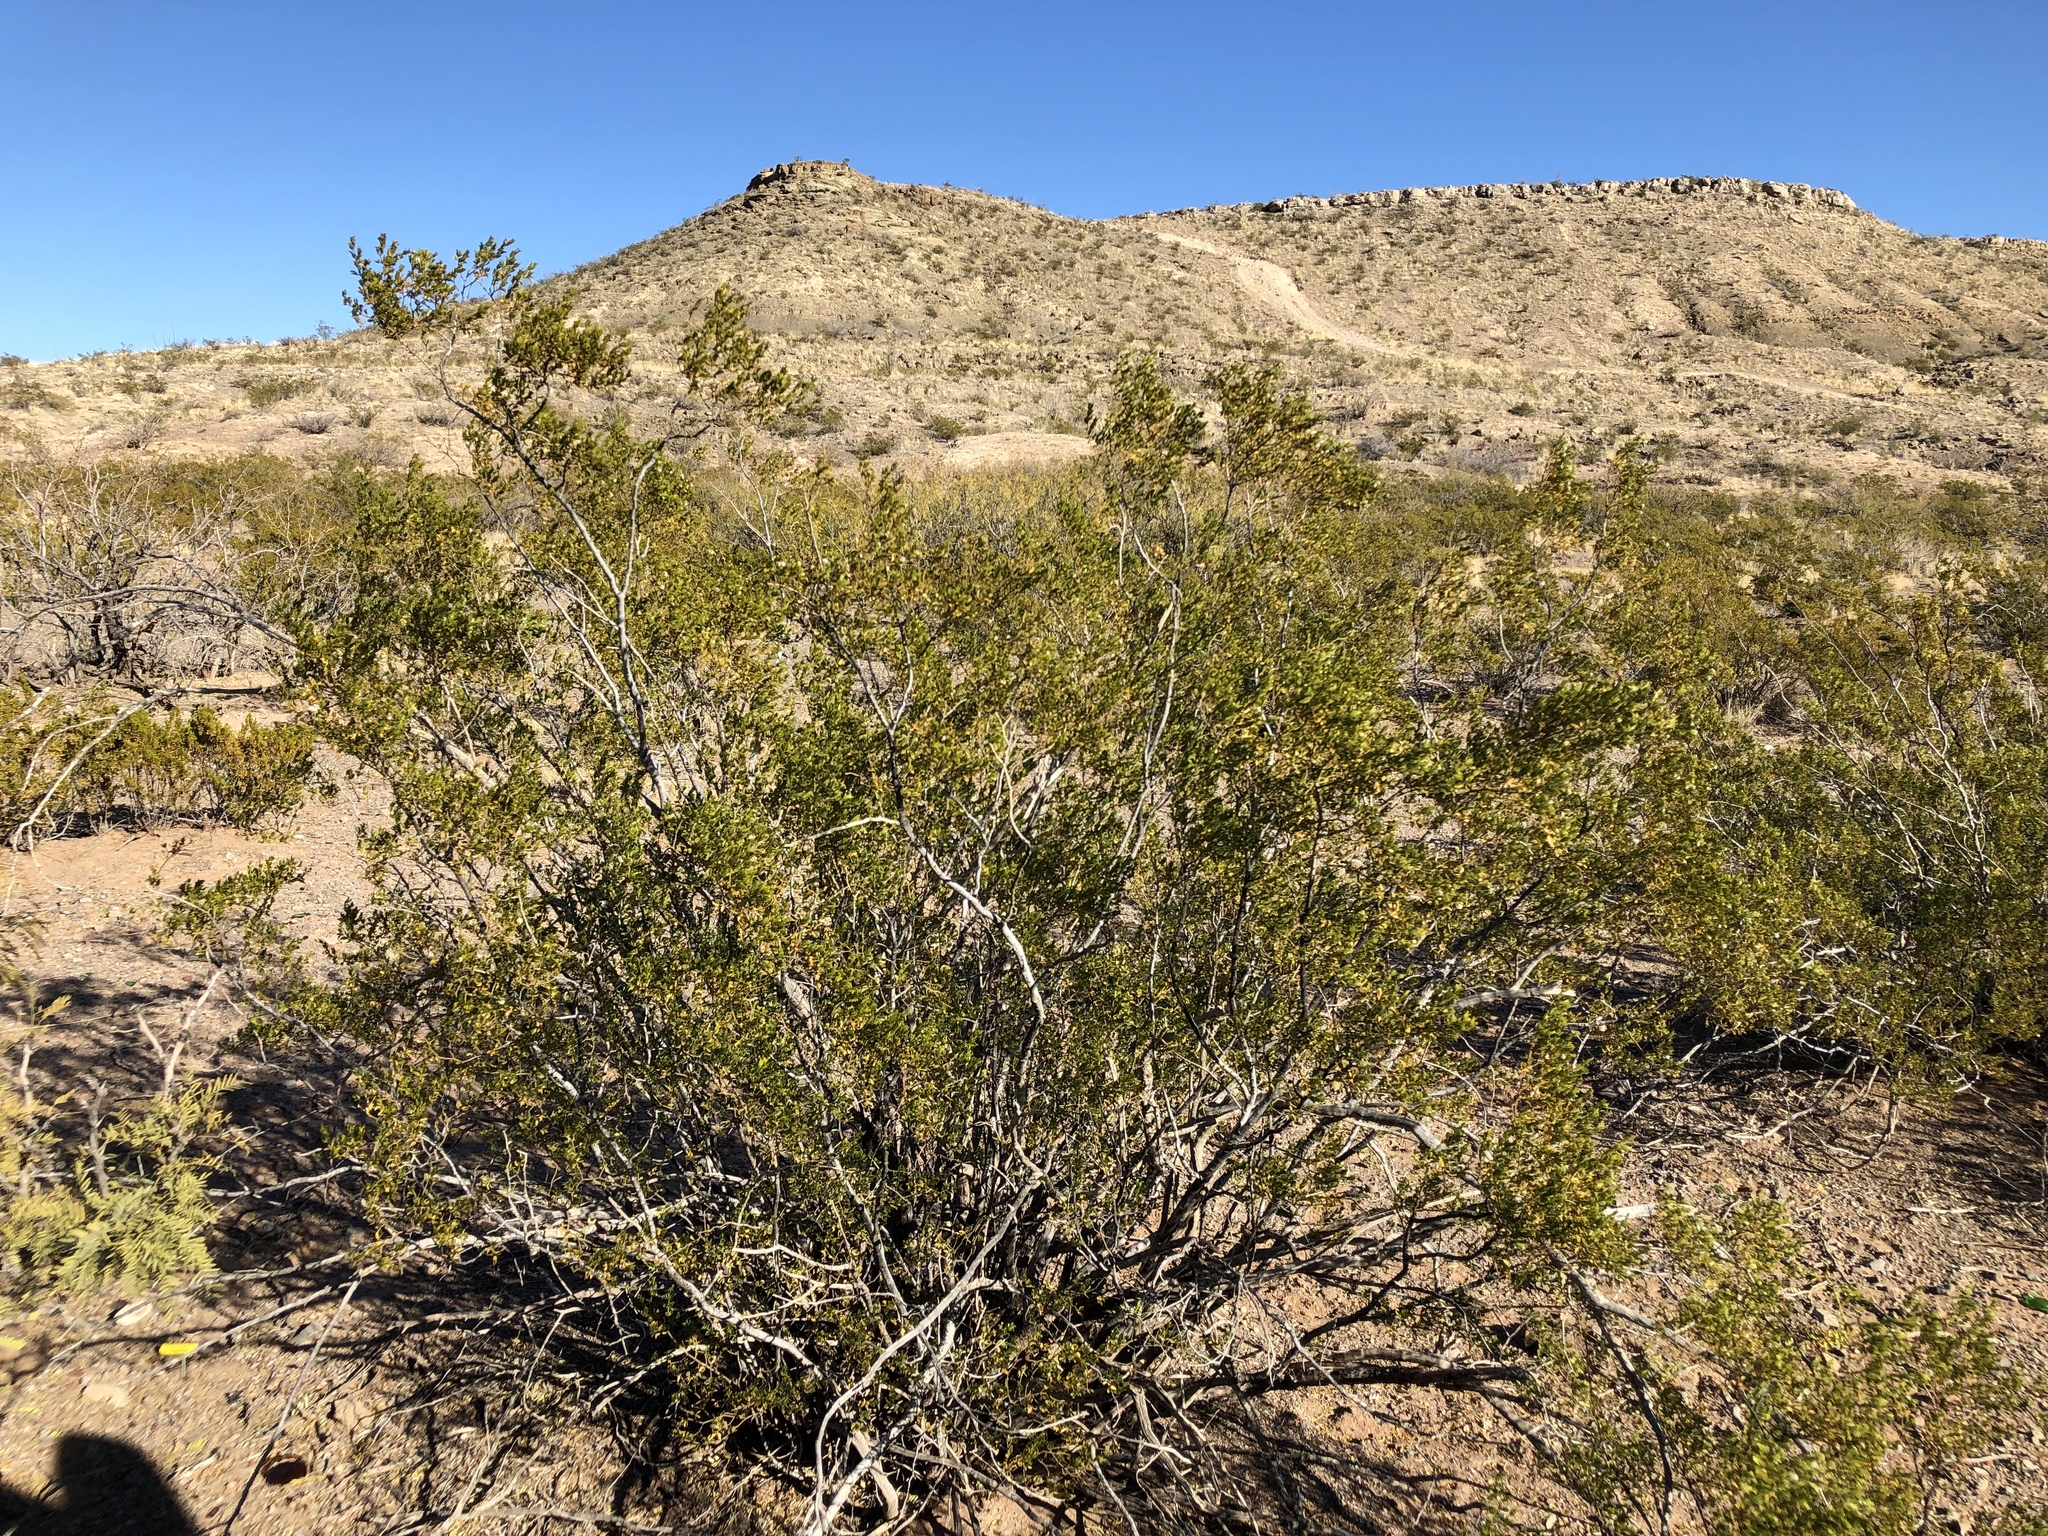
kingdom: Plantae
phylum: Tracheophyta
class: Magnoliopsida
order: Zygophyllales
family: Zygophyllaceae
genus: Larrea
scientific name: Larrea tridentata
